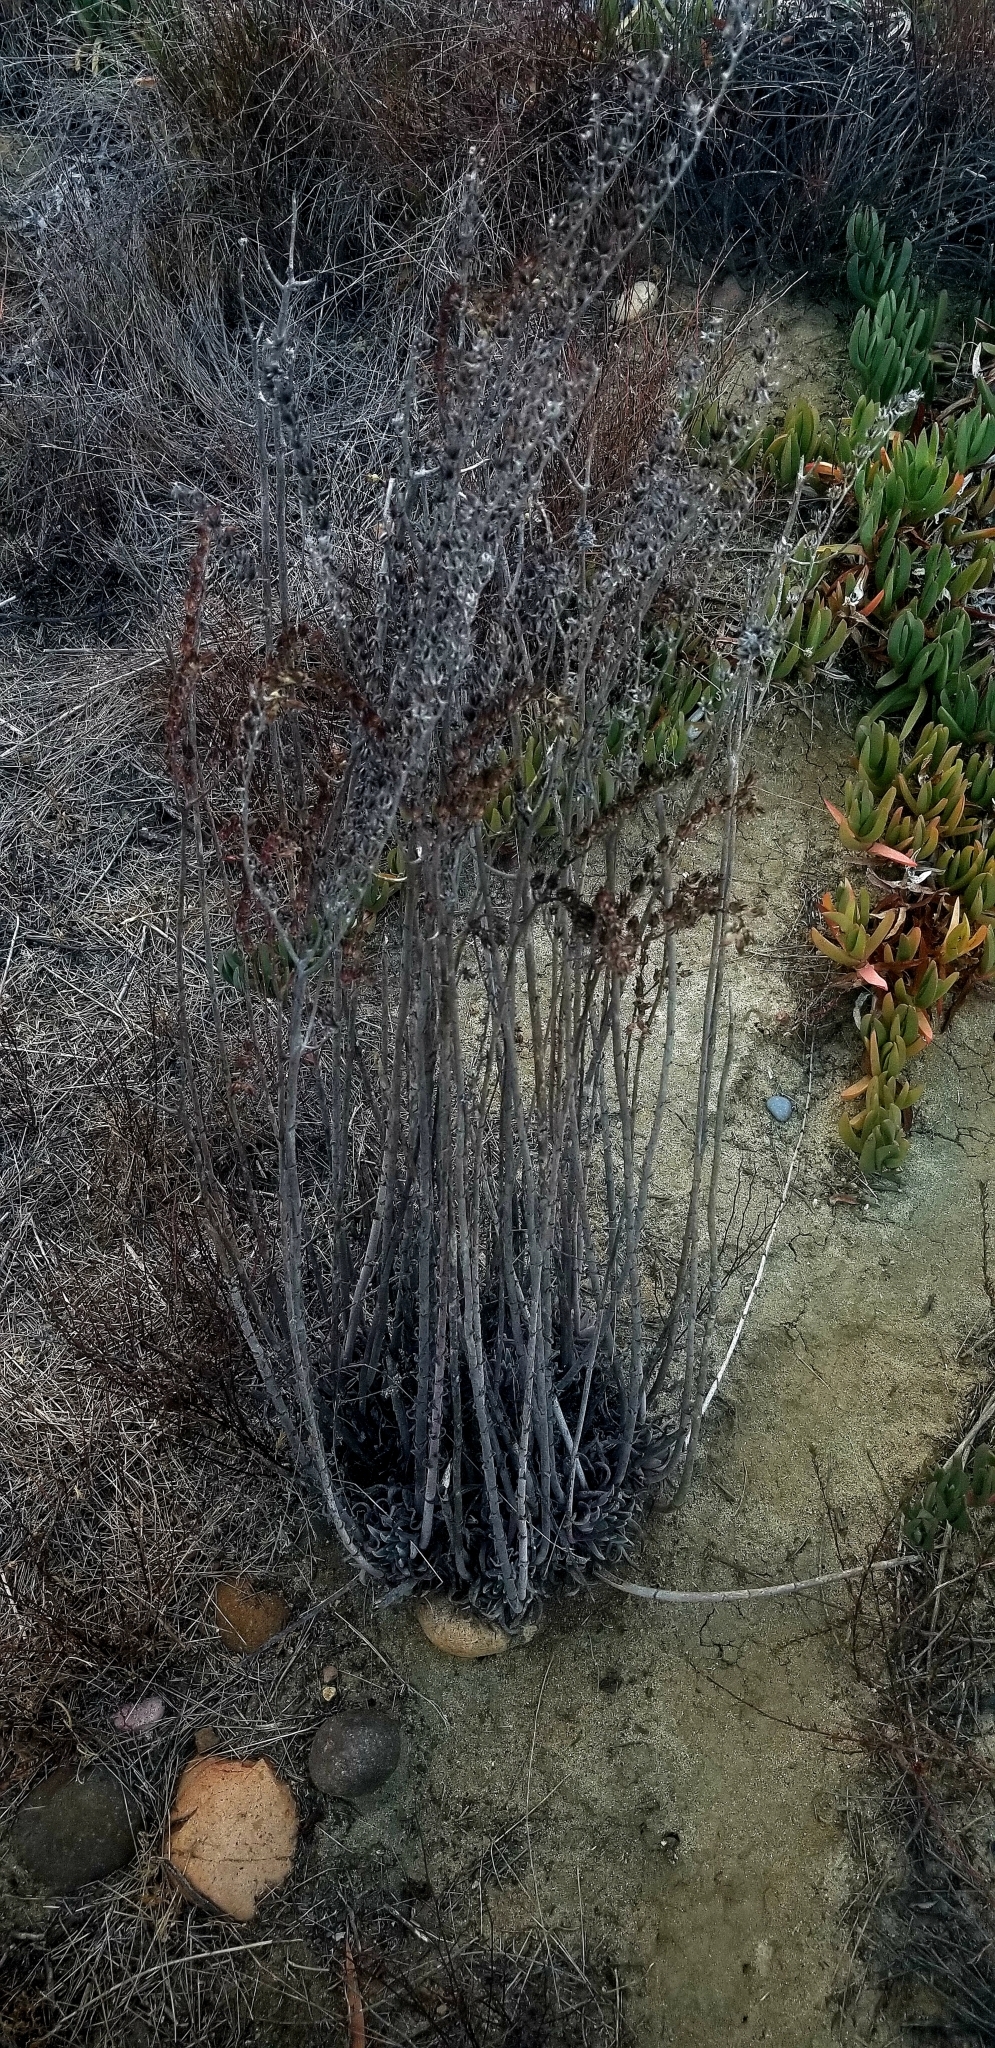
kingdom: Plantae
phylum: Tracheophyta
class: Magnoliopsida
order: Saxifragales
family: Crassulaceae
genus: Dudleya
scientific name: Dudleya lanceolata
